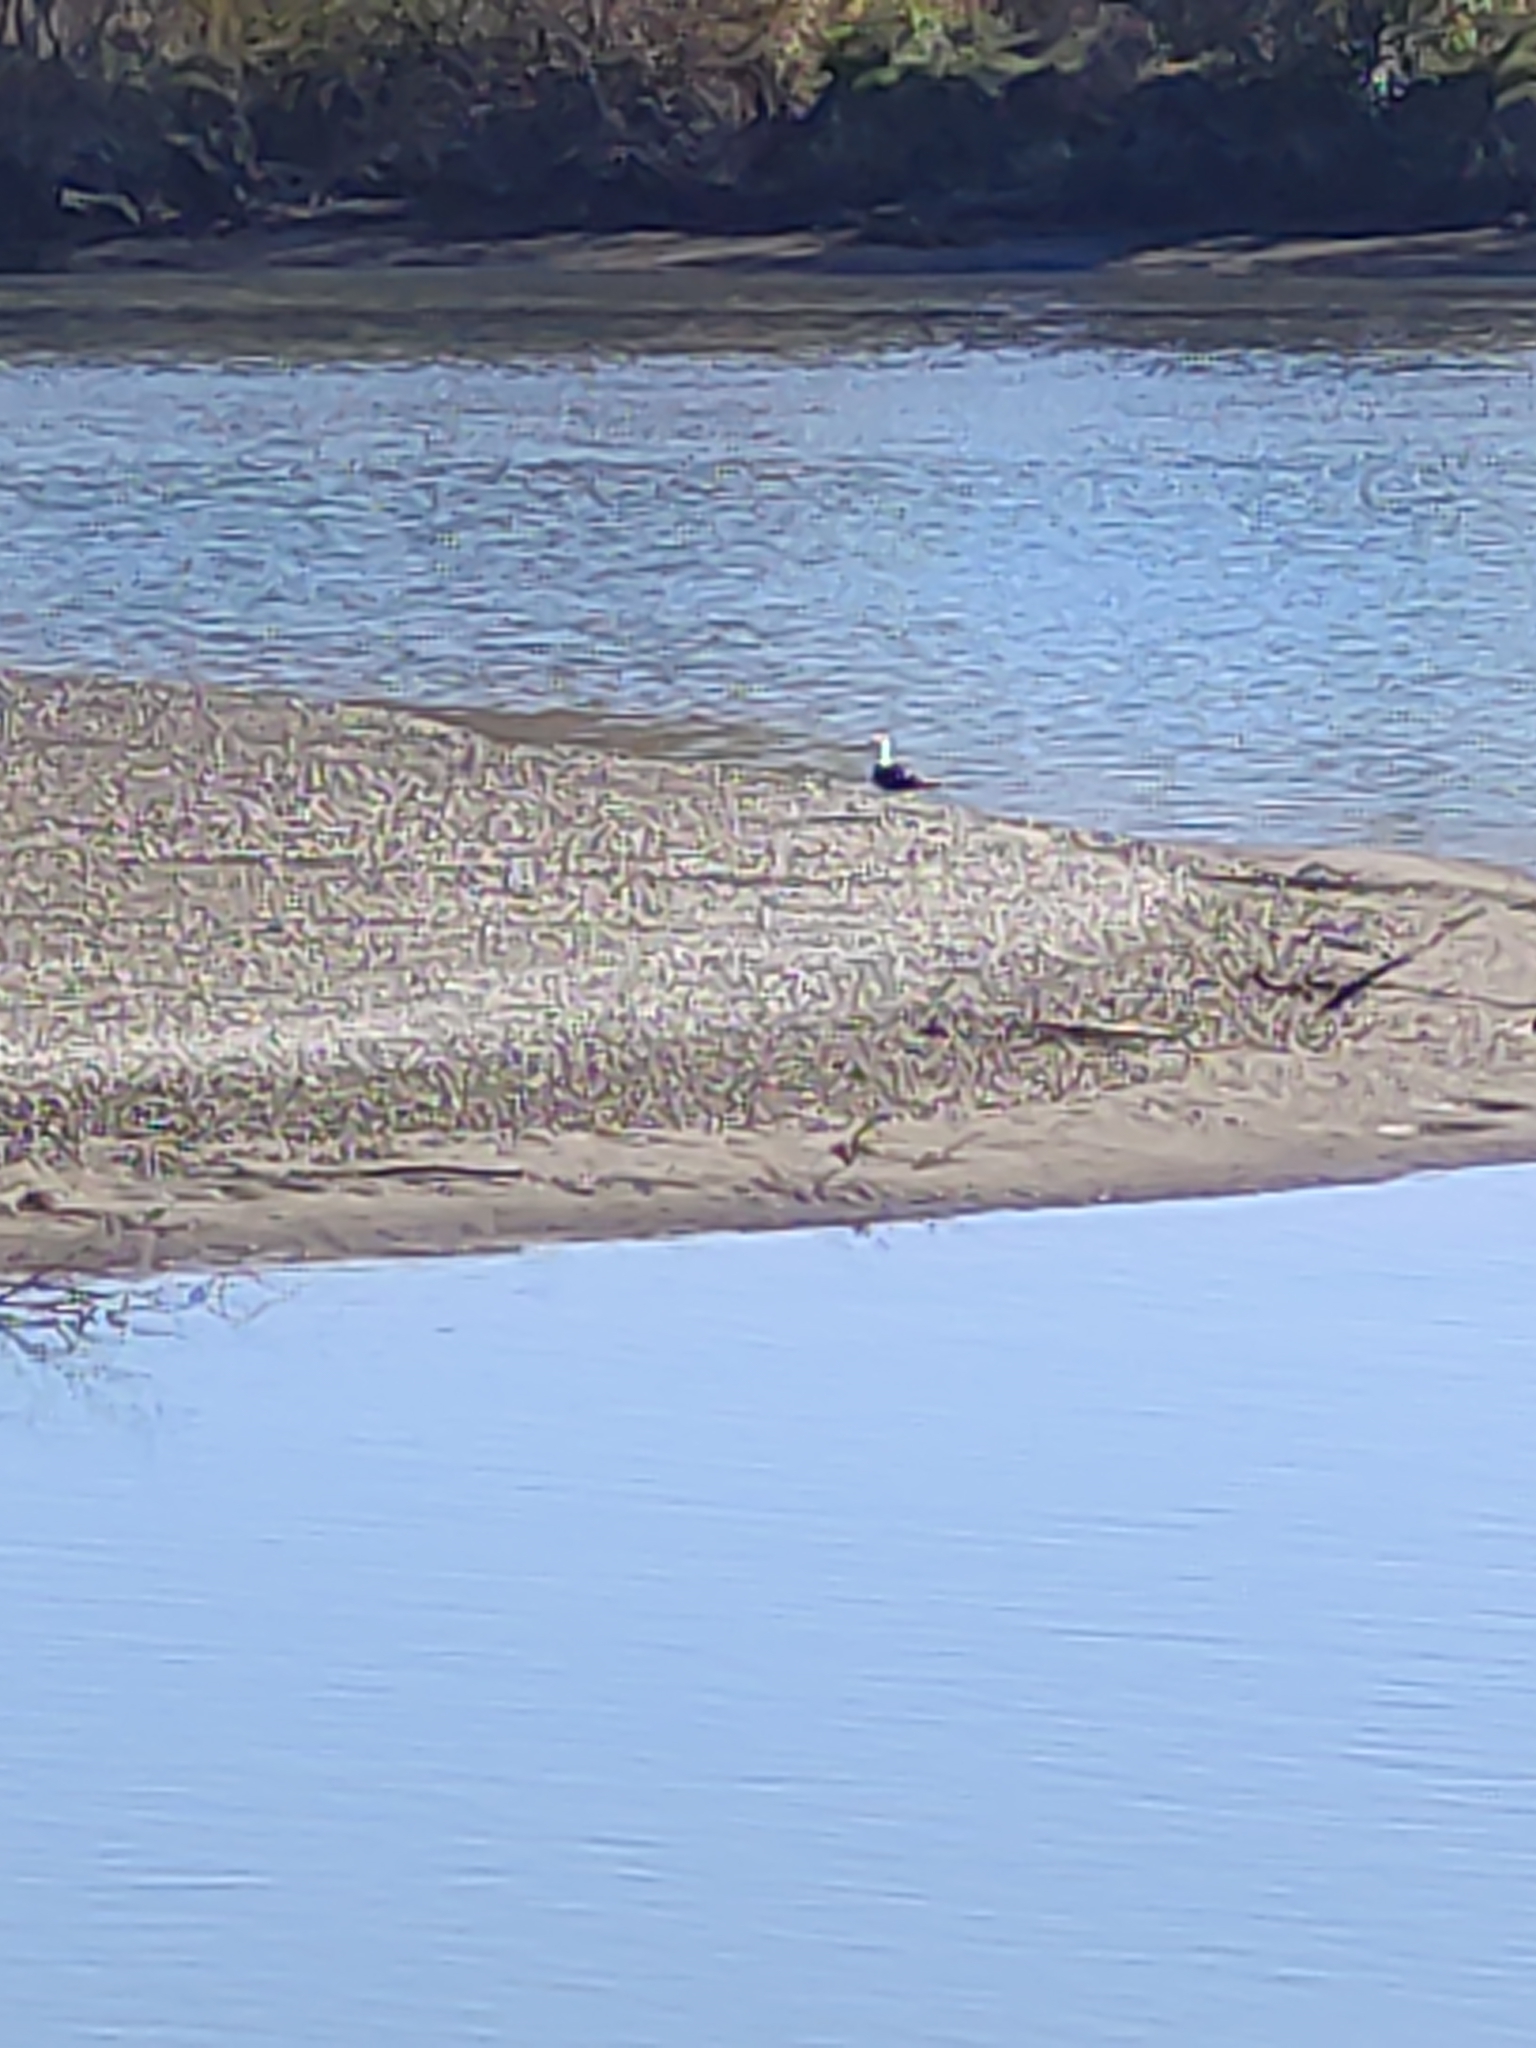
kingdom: Animalia
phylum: Chordata
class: Aves
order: Charadriiformes
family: Laridae
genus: Larus
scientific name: Larus dominicanus
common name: Kelp gull
